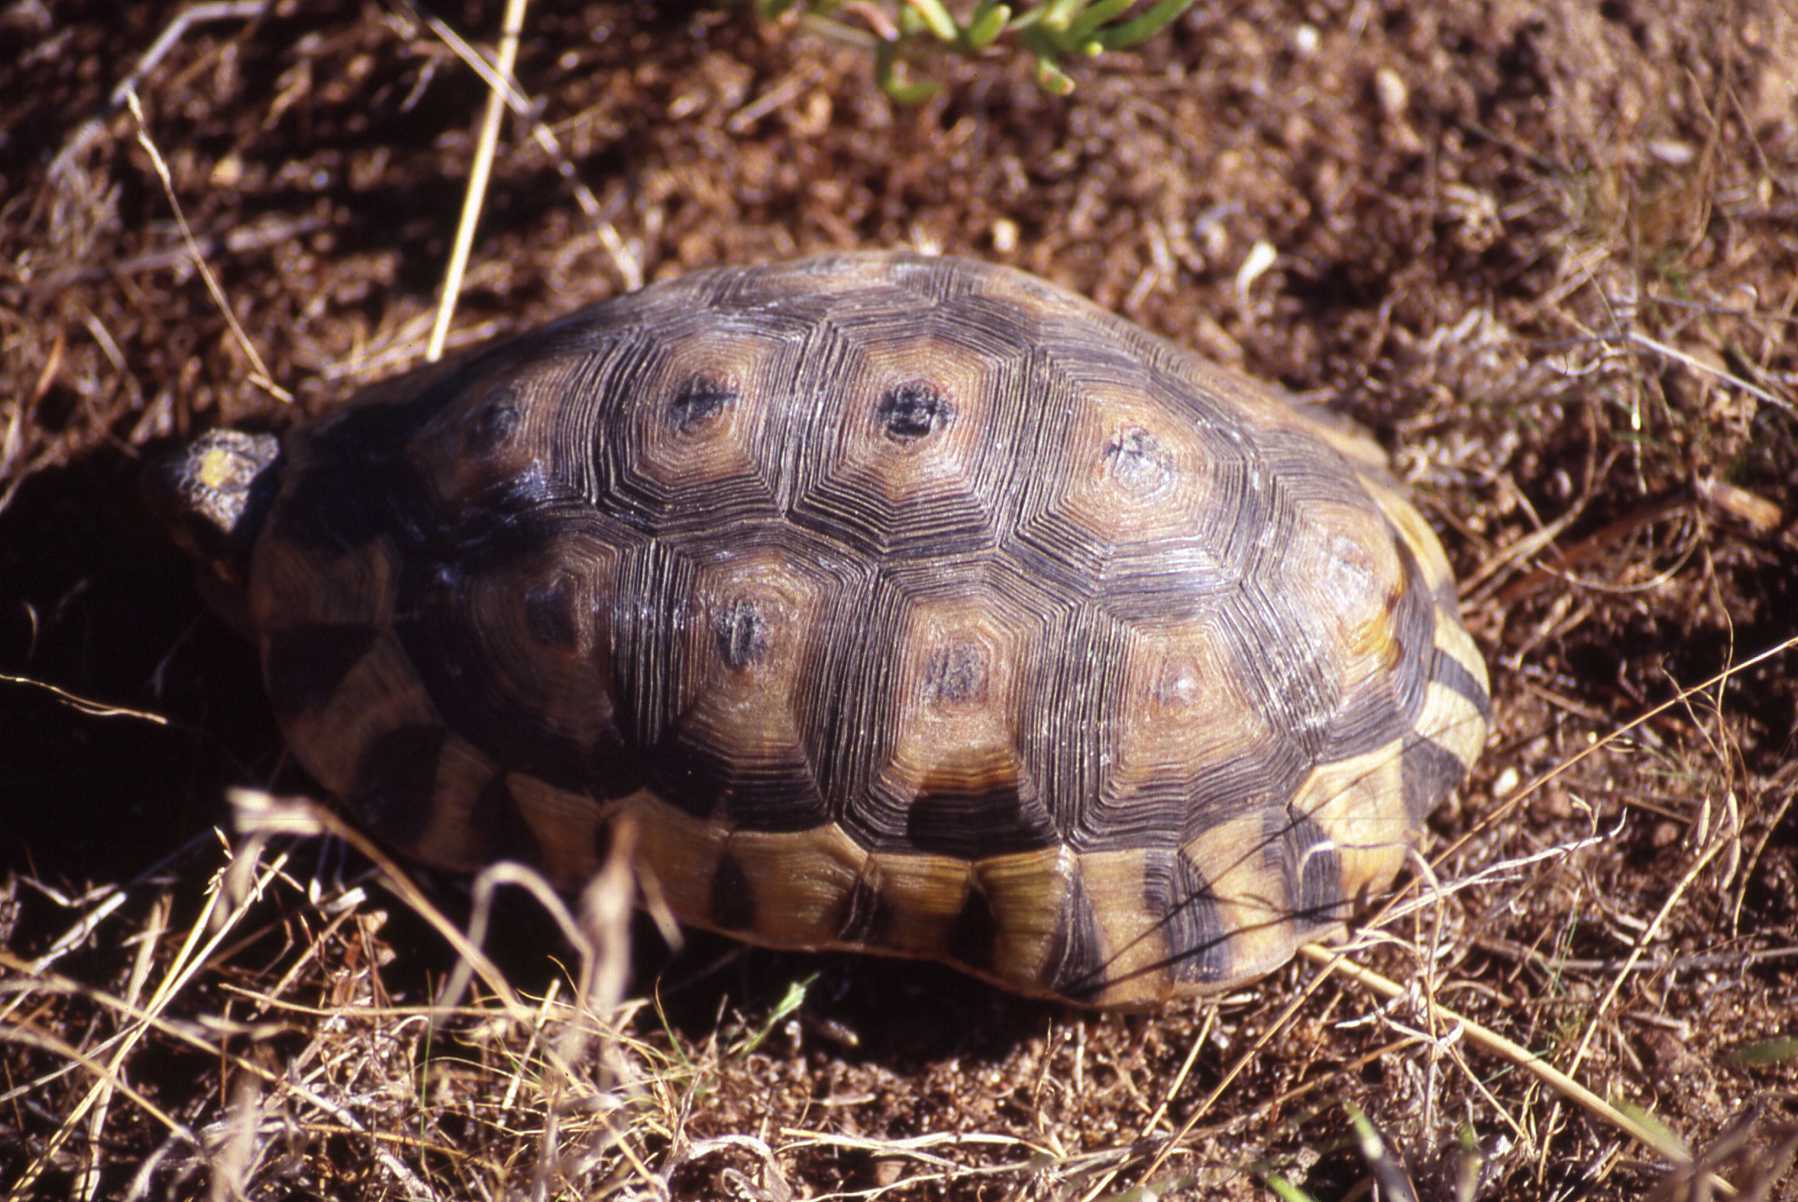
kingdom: Animalia
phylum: Chordata
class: Testudines
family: Testudinidae
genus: Chersina
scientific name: Chersina angulata
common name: South african bowsprit tortoise
